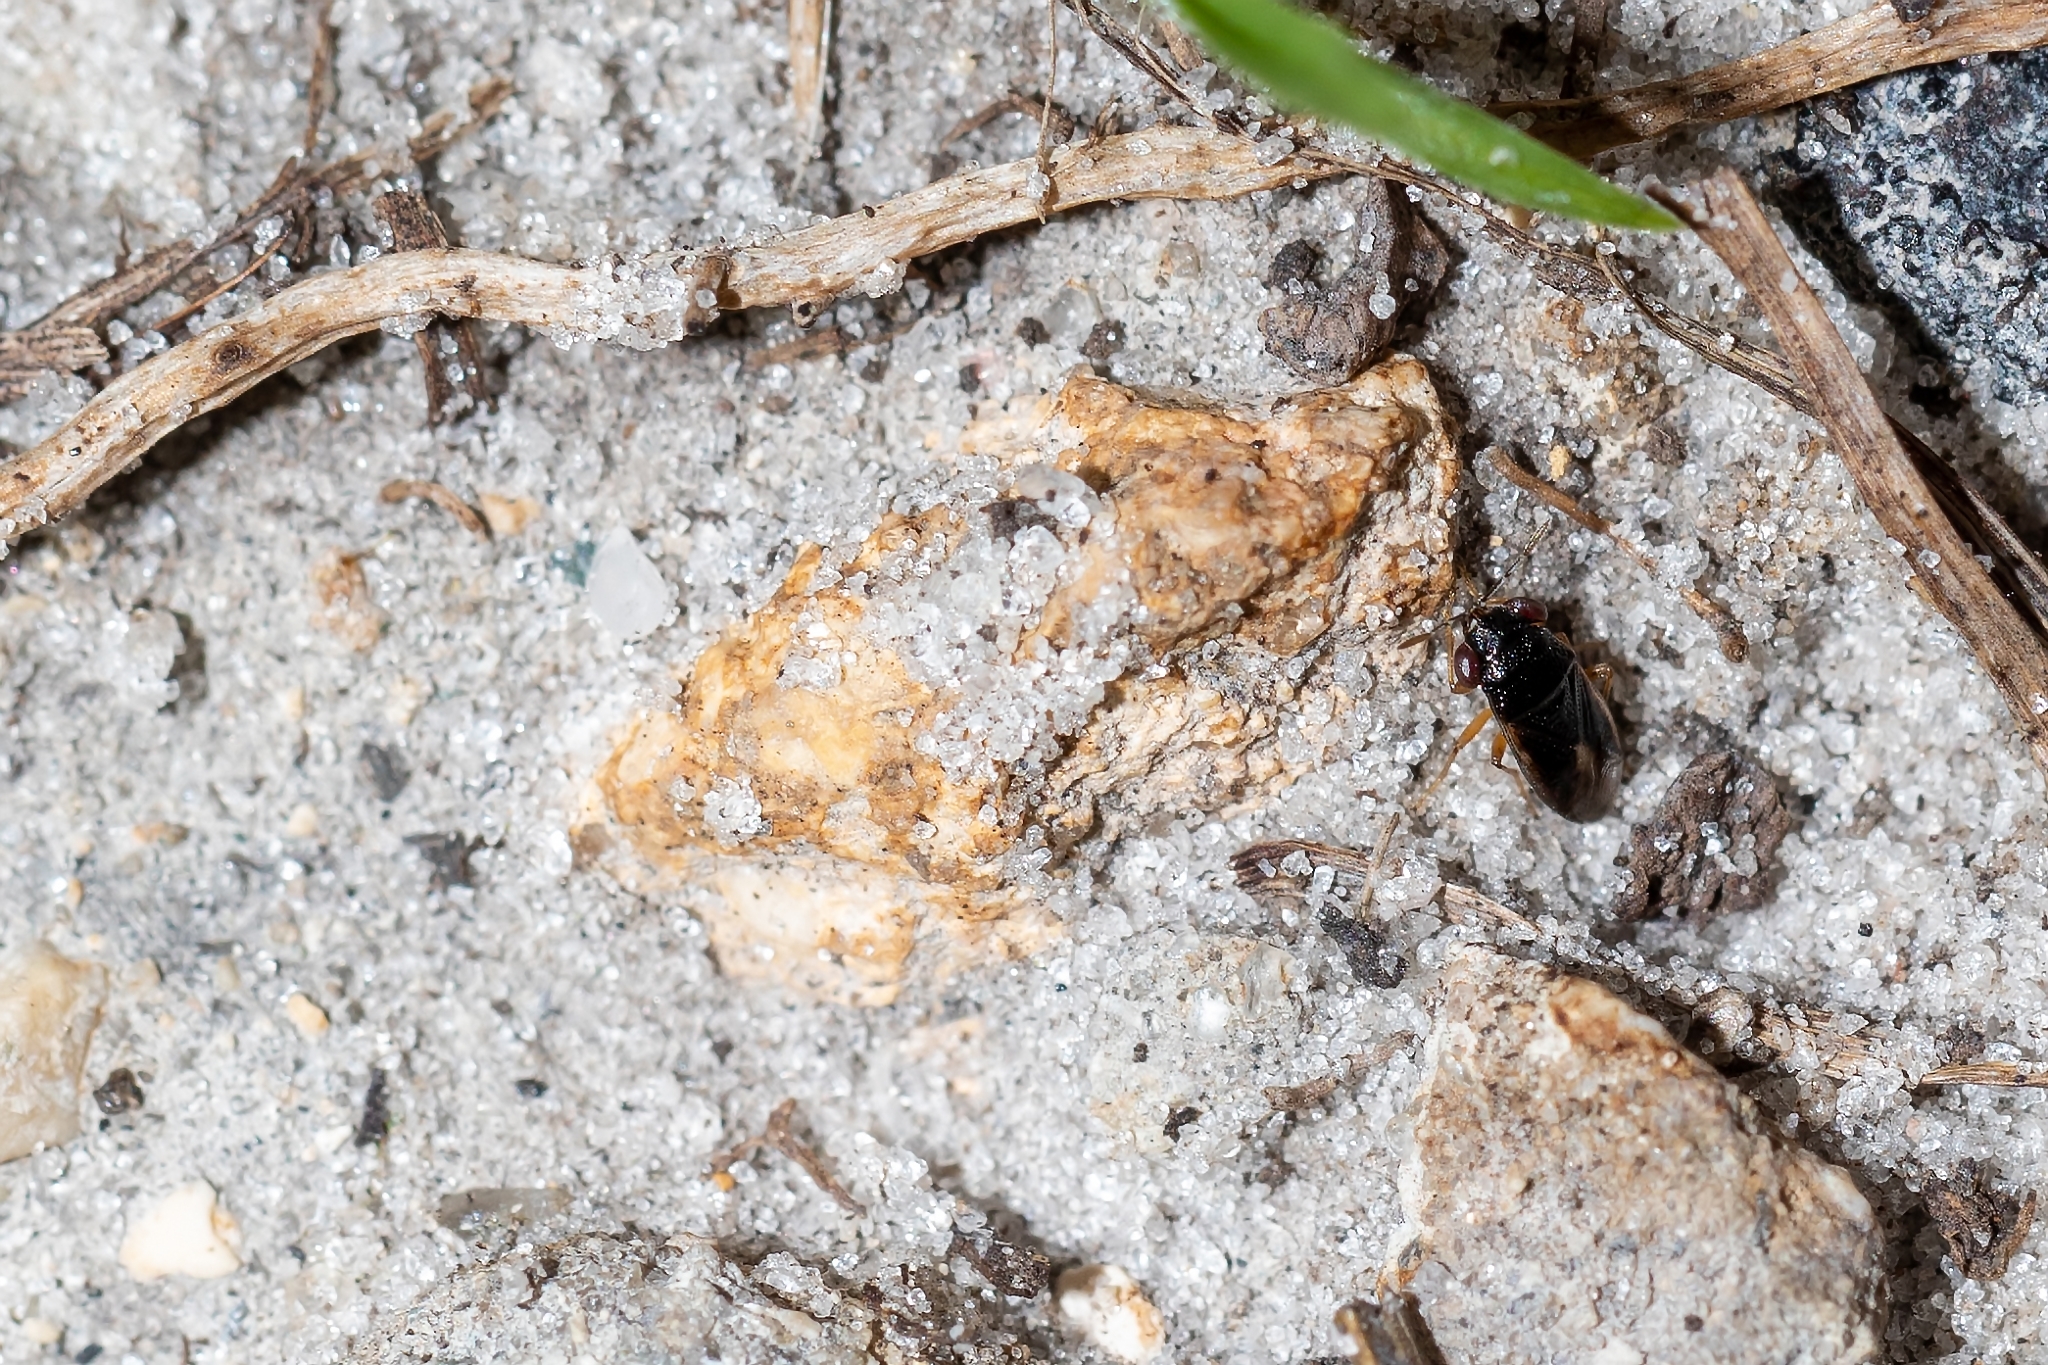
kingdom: Animalia
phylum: Arthropoda
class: Insecta
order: Hemiptera
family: Geocoridae
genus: Geocoris
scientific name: Geocoris uliginosus
